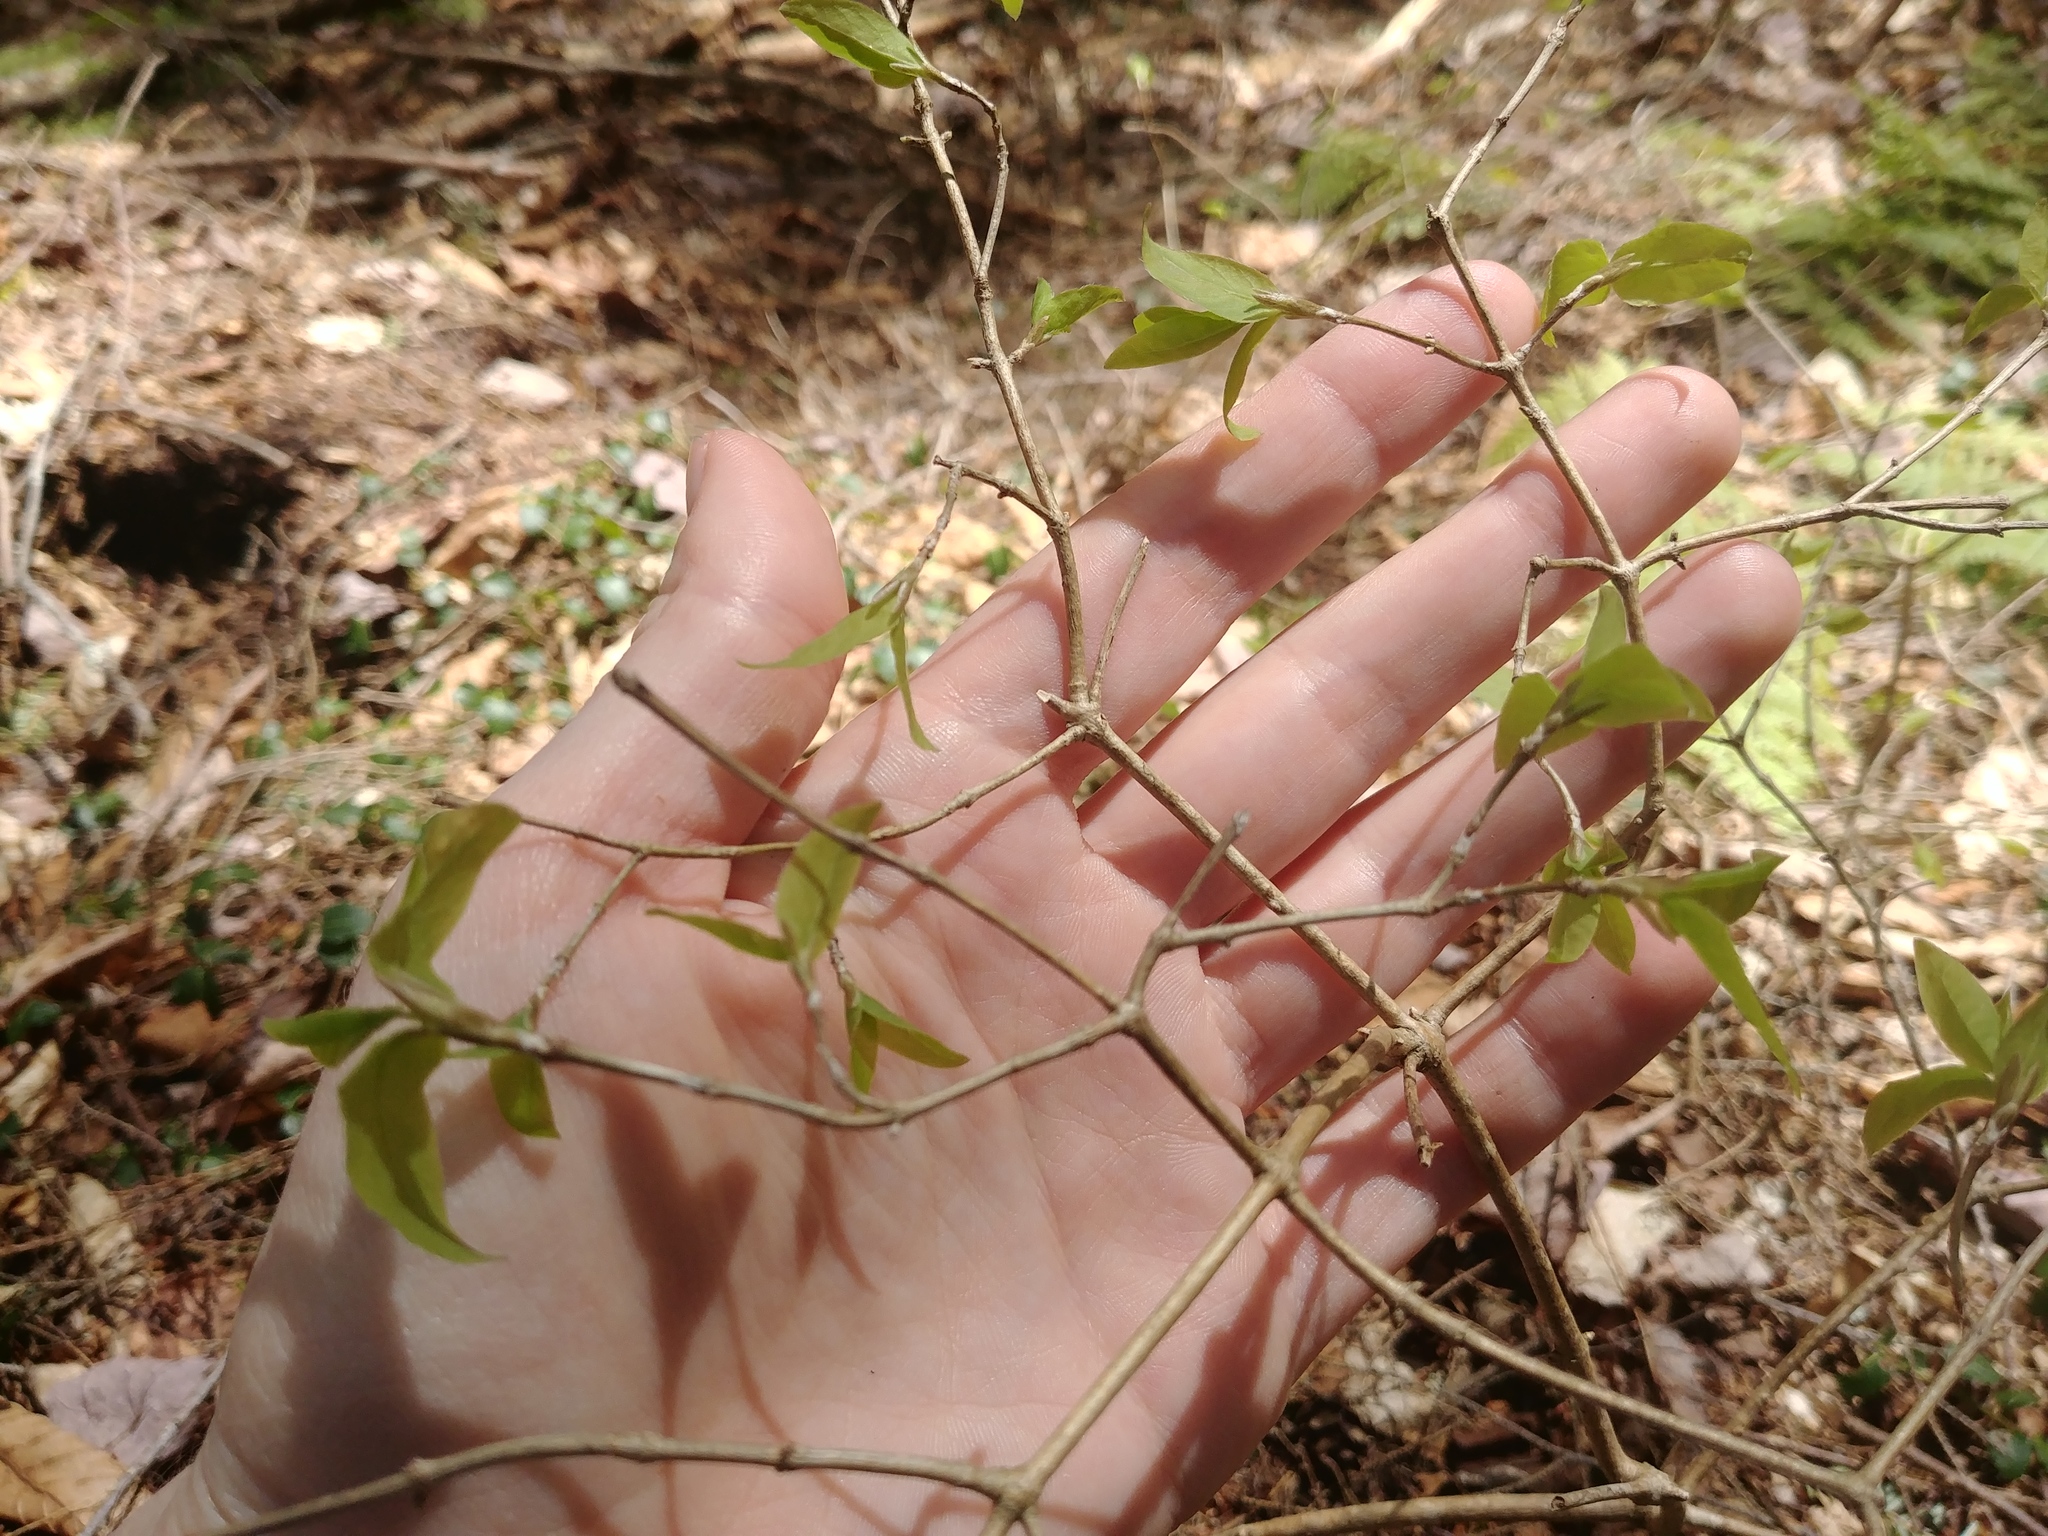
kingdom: Plantae
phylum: Tracheophyta
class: Magnoliopsida
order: Dipsacales
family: Caprifoliaceae
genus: Lonicera
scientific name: Lonicera canadensis
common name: American fly-honeysuckle
